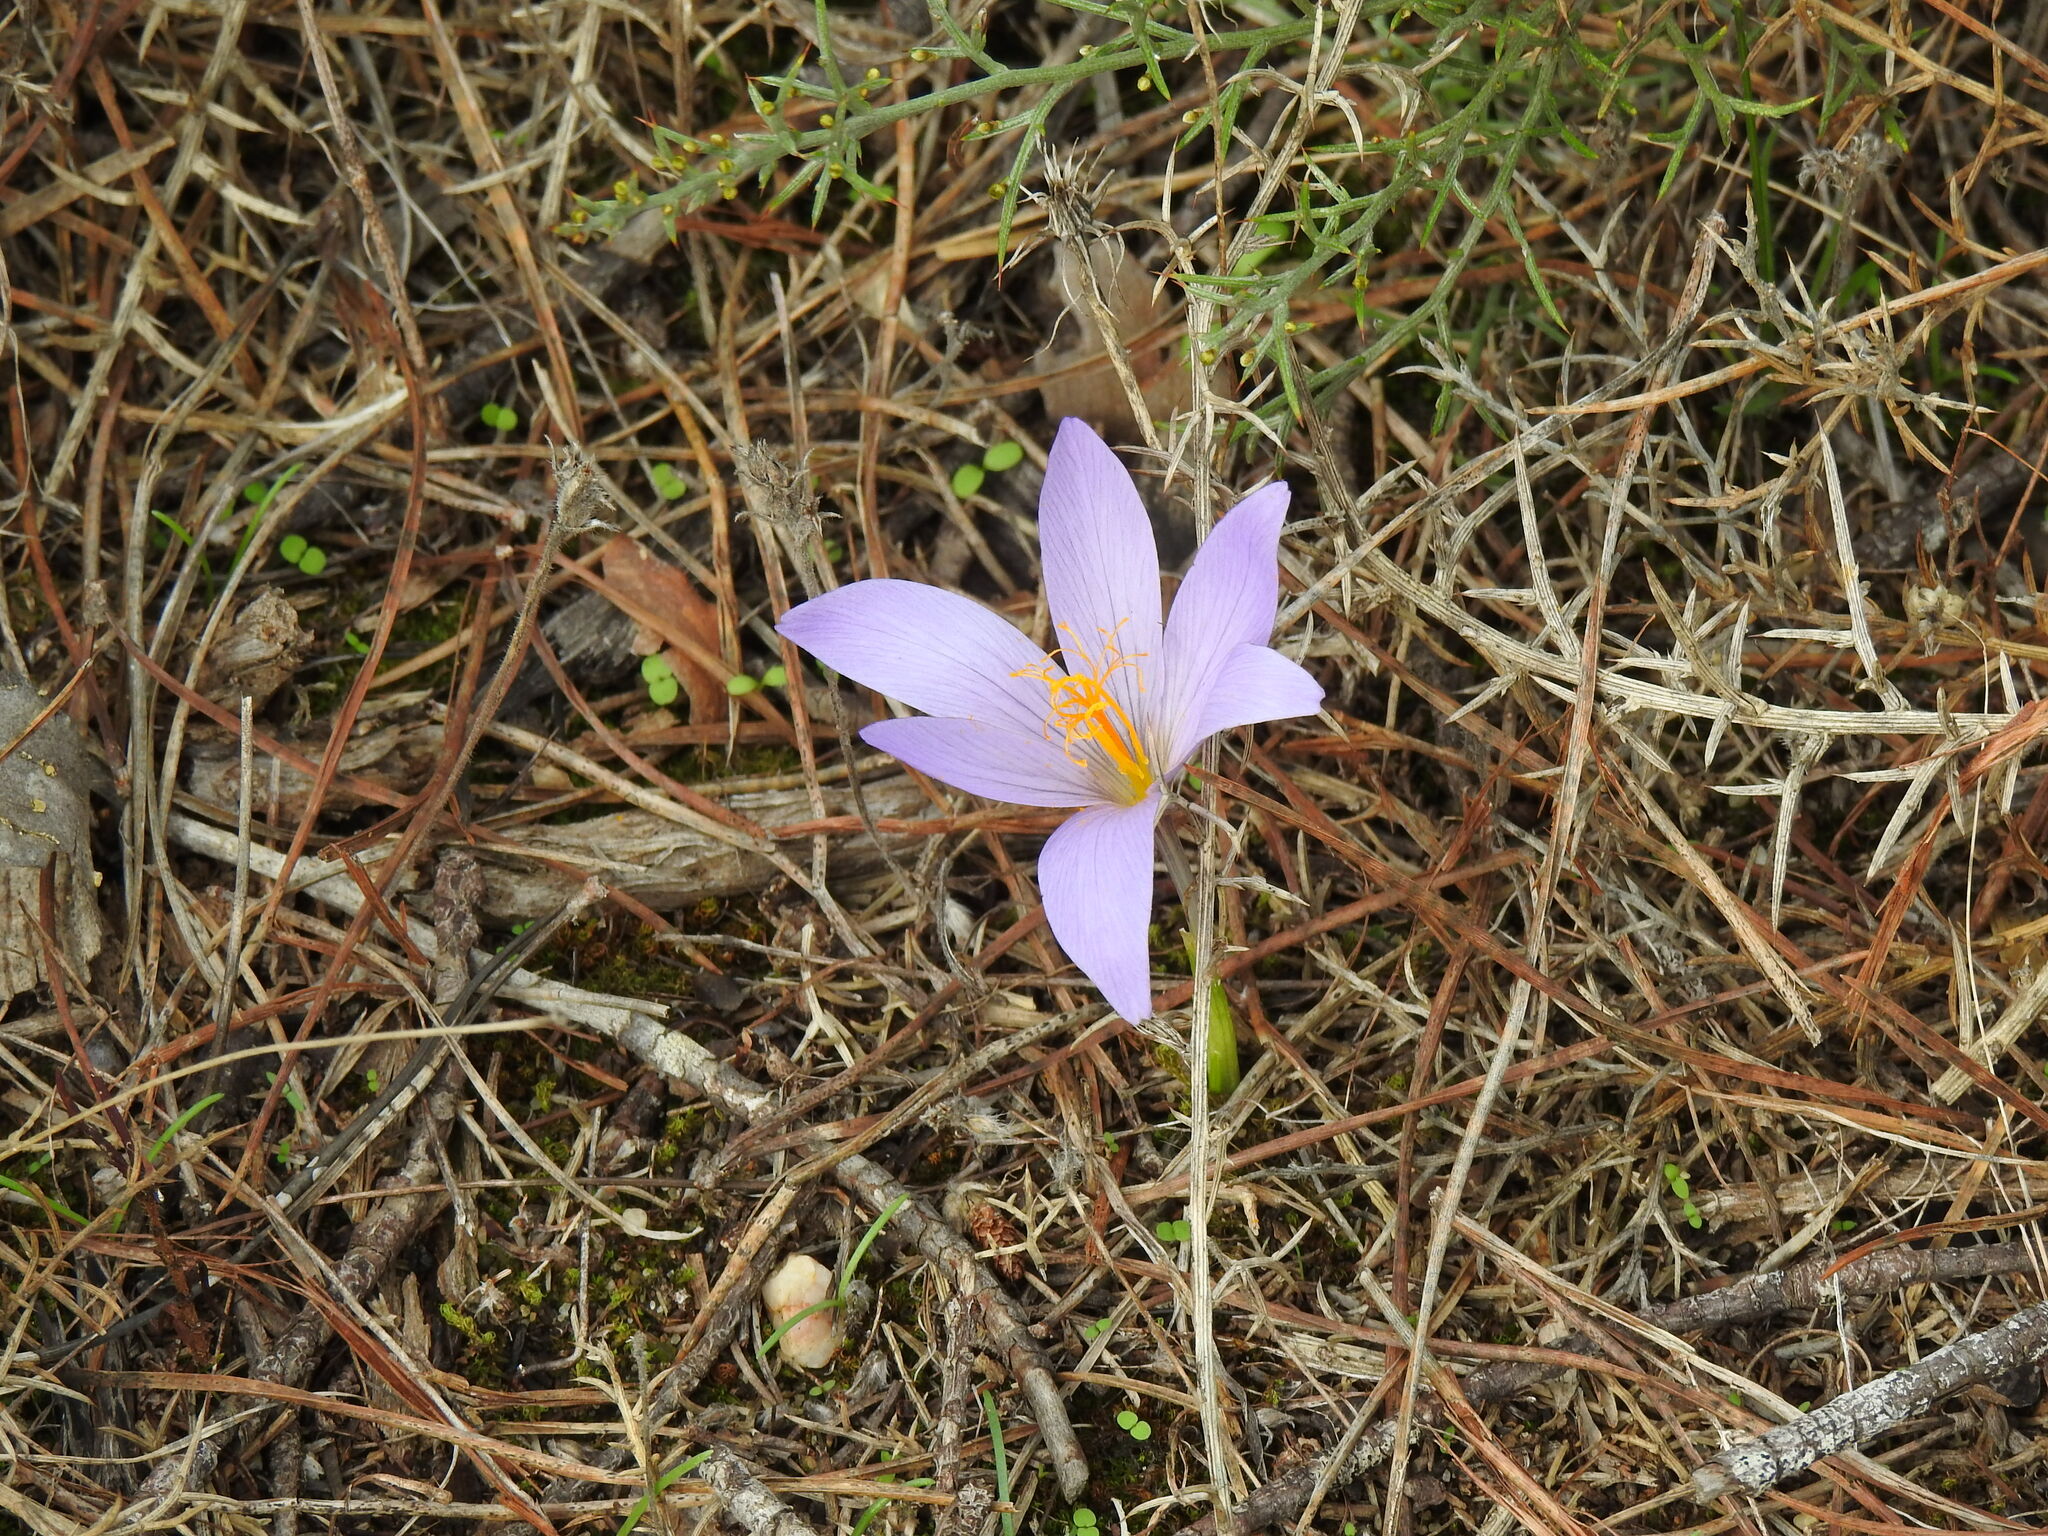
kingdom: Plantae
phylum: Tracheophyta
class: Liliopsida
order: Asparagales
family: Iridaceae
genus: Crocus
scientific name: Crocus serotinus
